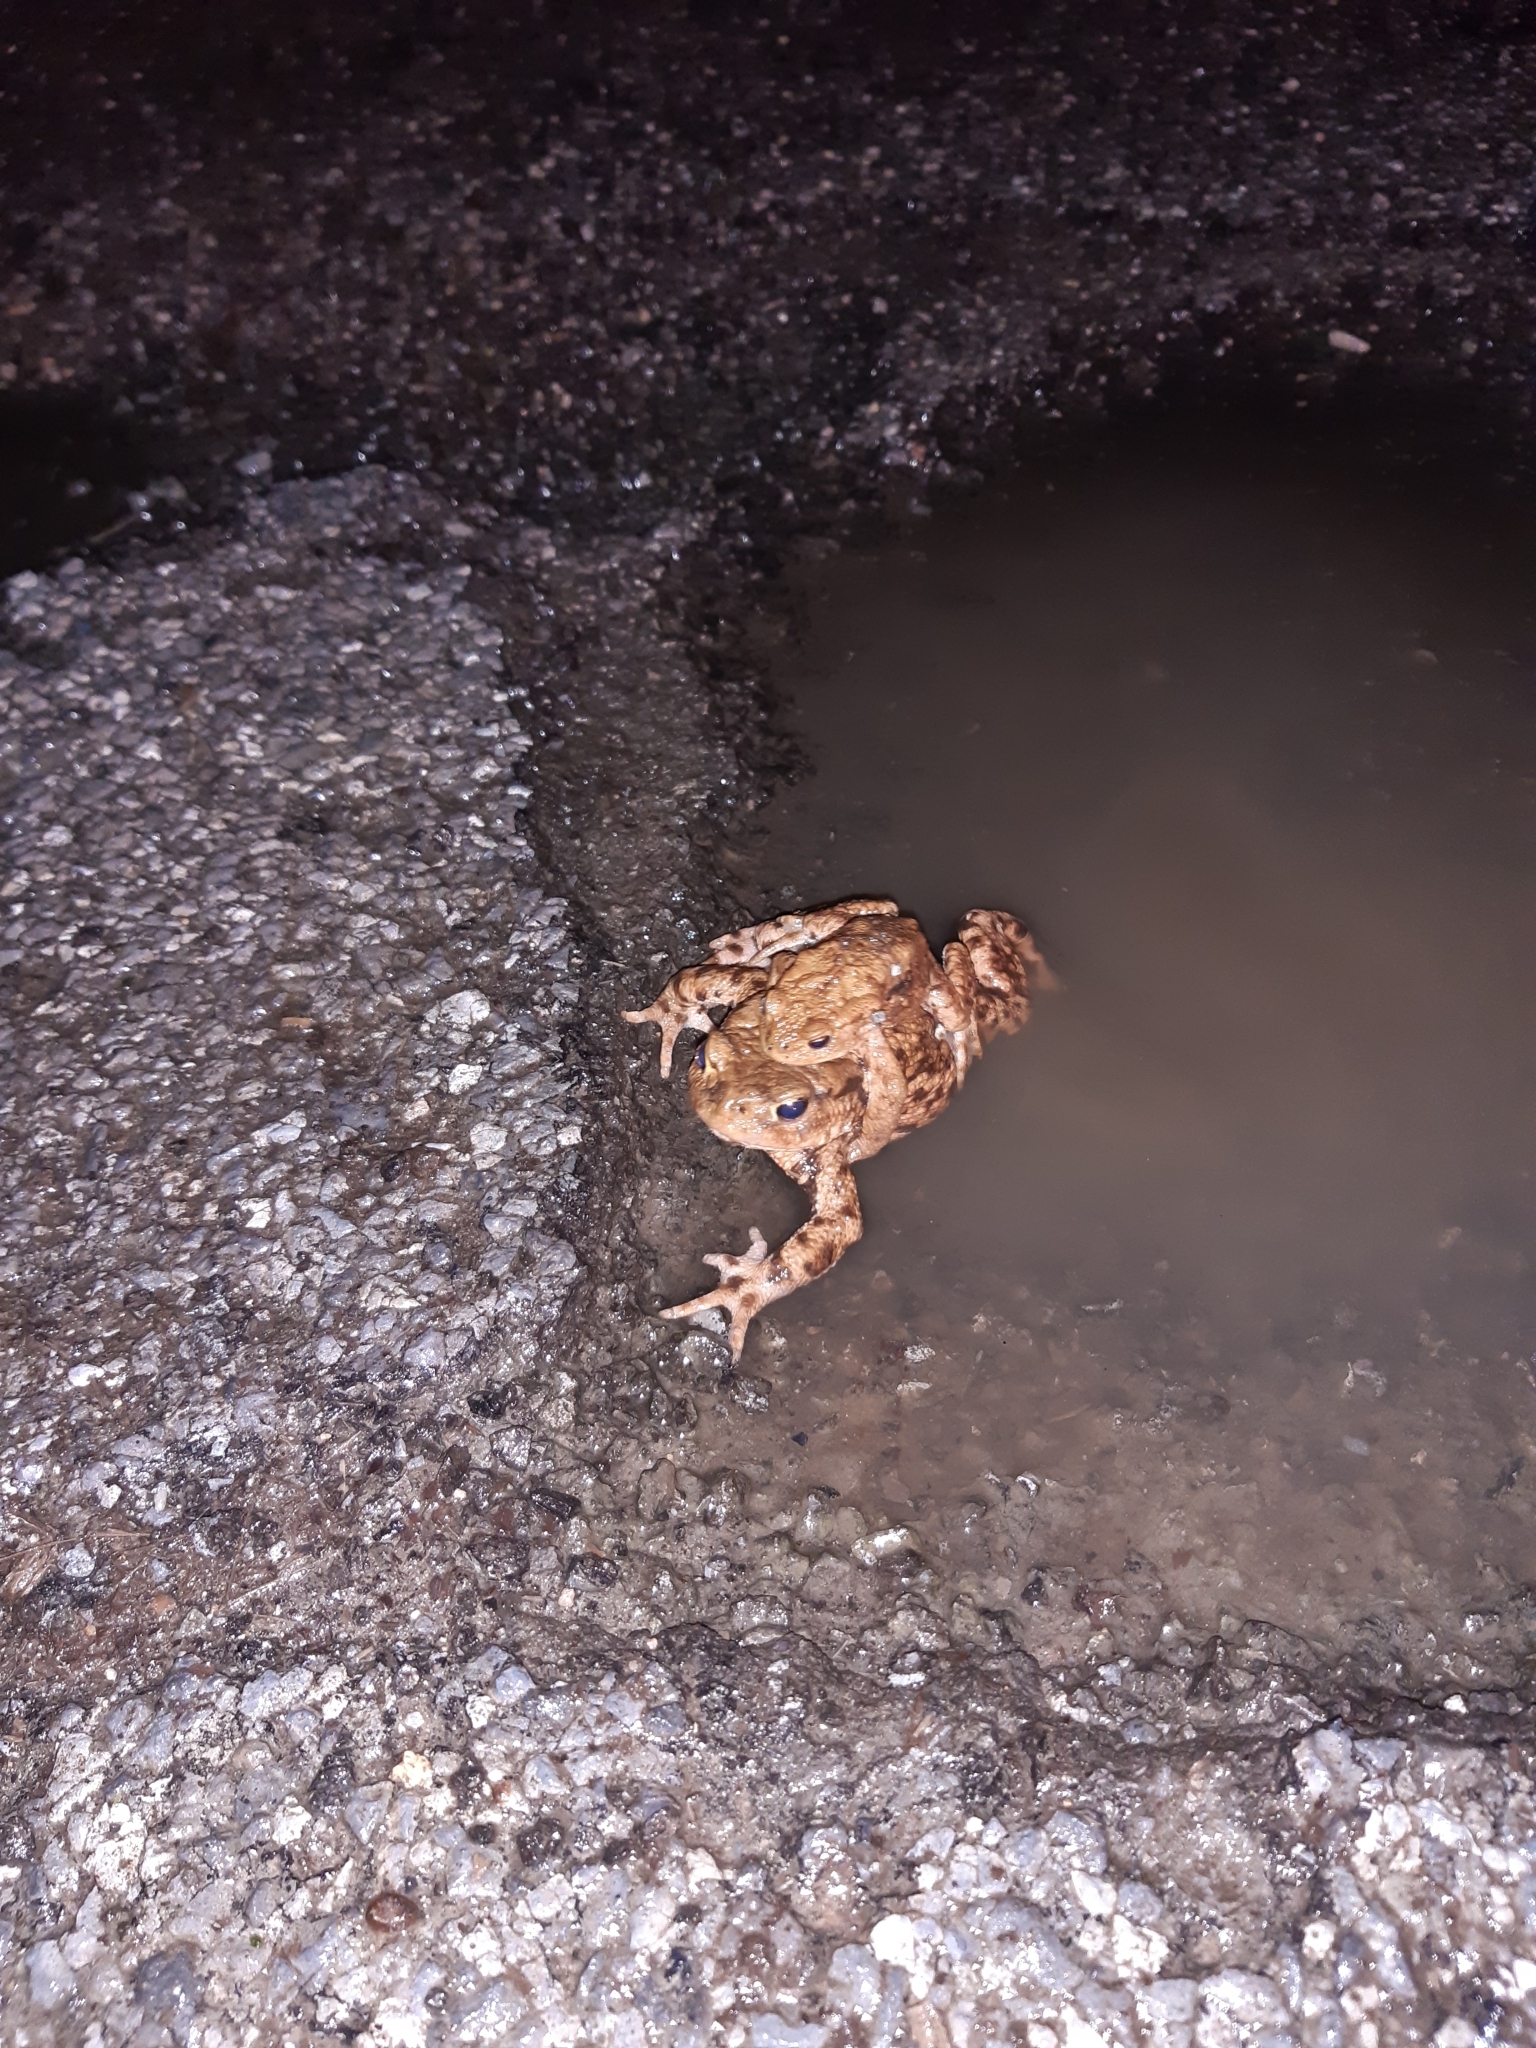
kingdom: Animalia
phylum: Chordata
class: Amphibia
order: Anura
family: Bufonidae
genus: Bufo
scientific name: Bufo bufo
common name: Common toad
